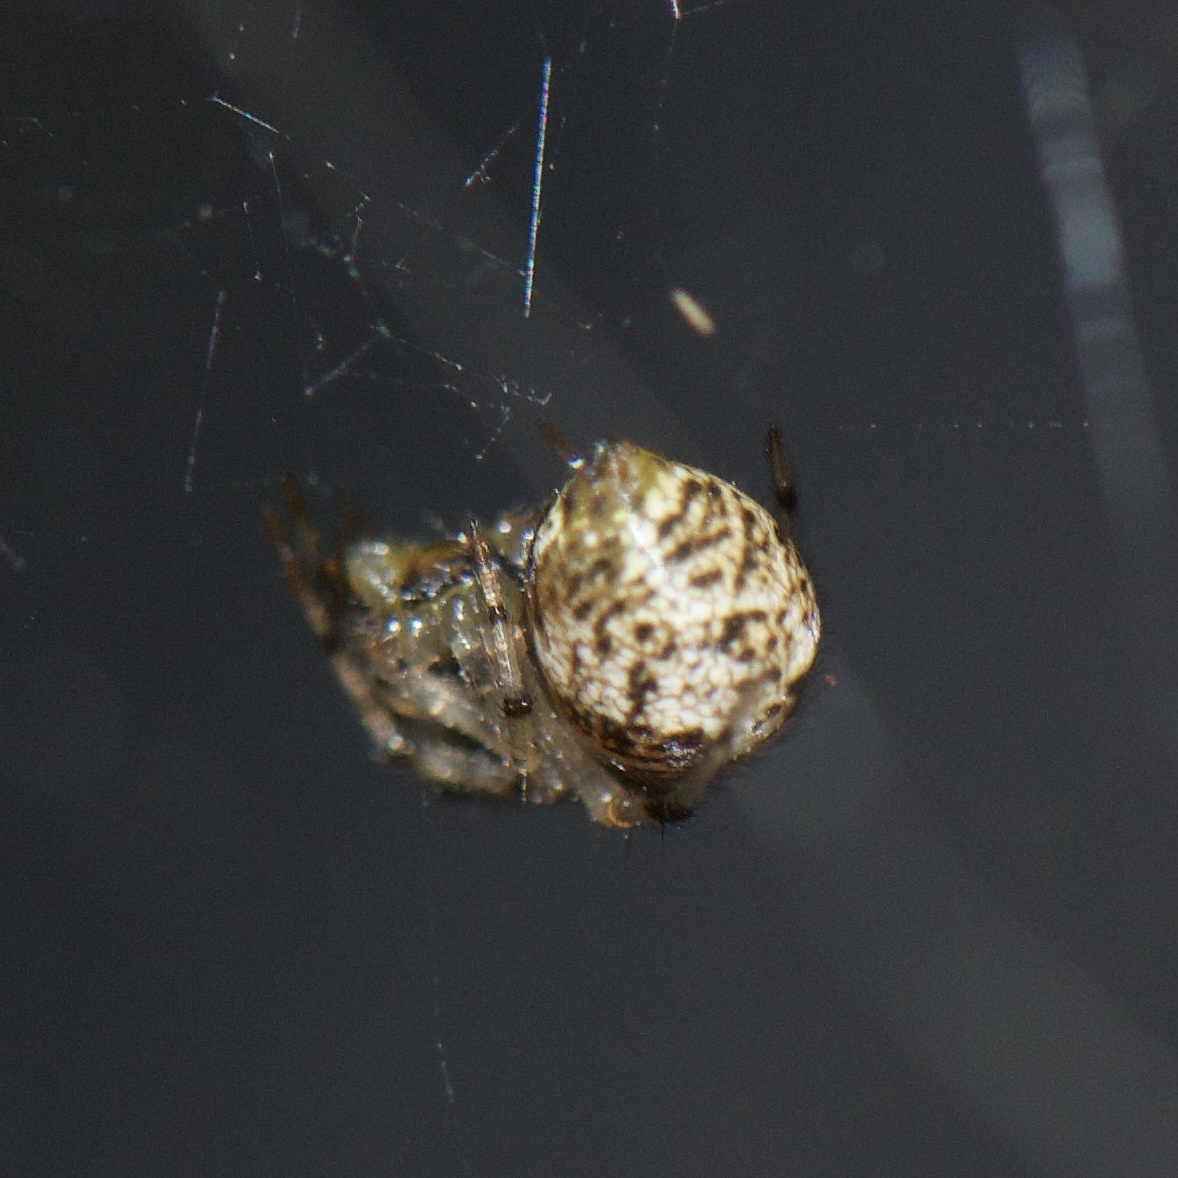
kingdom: Animalia
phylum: Arthropoda
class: Arachnida
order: Araneae
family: Theridiidae
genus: Parasteatoda
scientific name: Parasteatoda tepidariorum
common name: Common house spider
